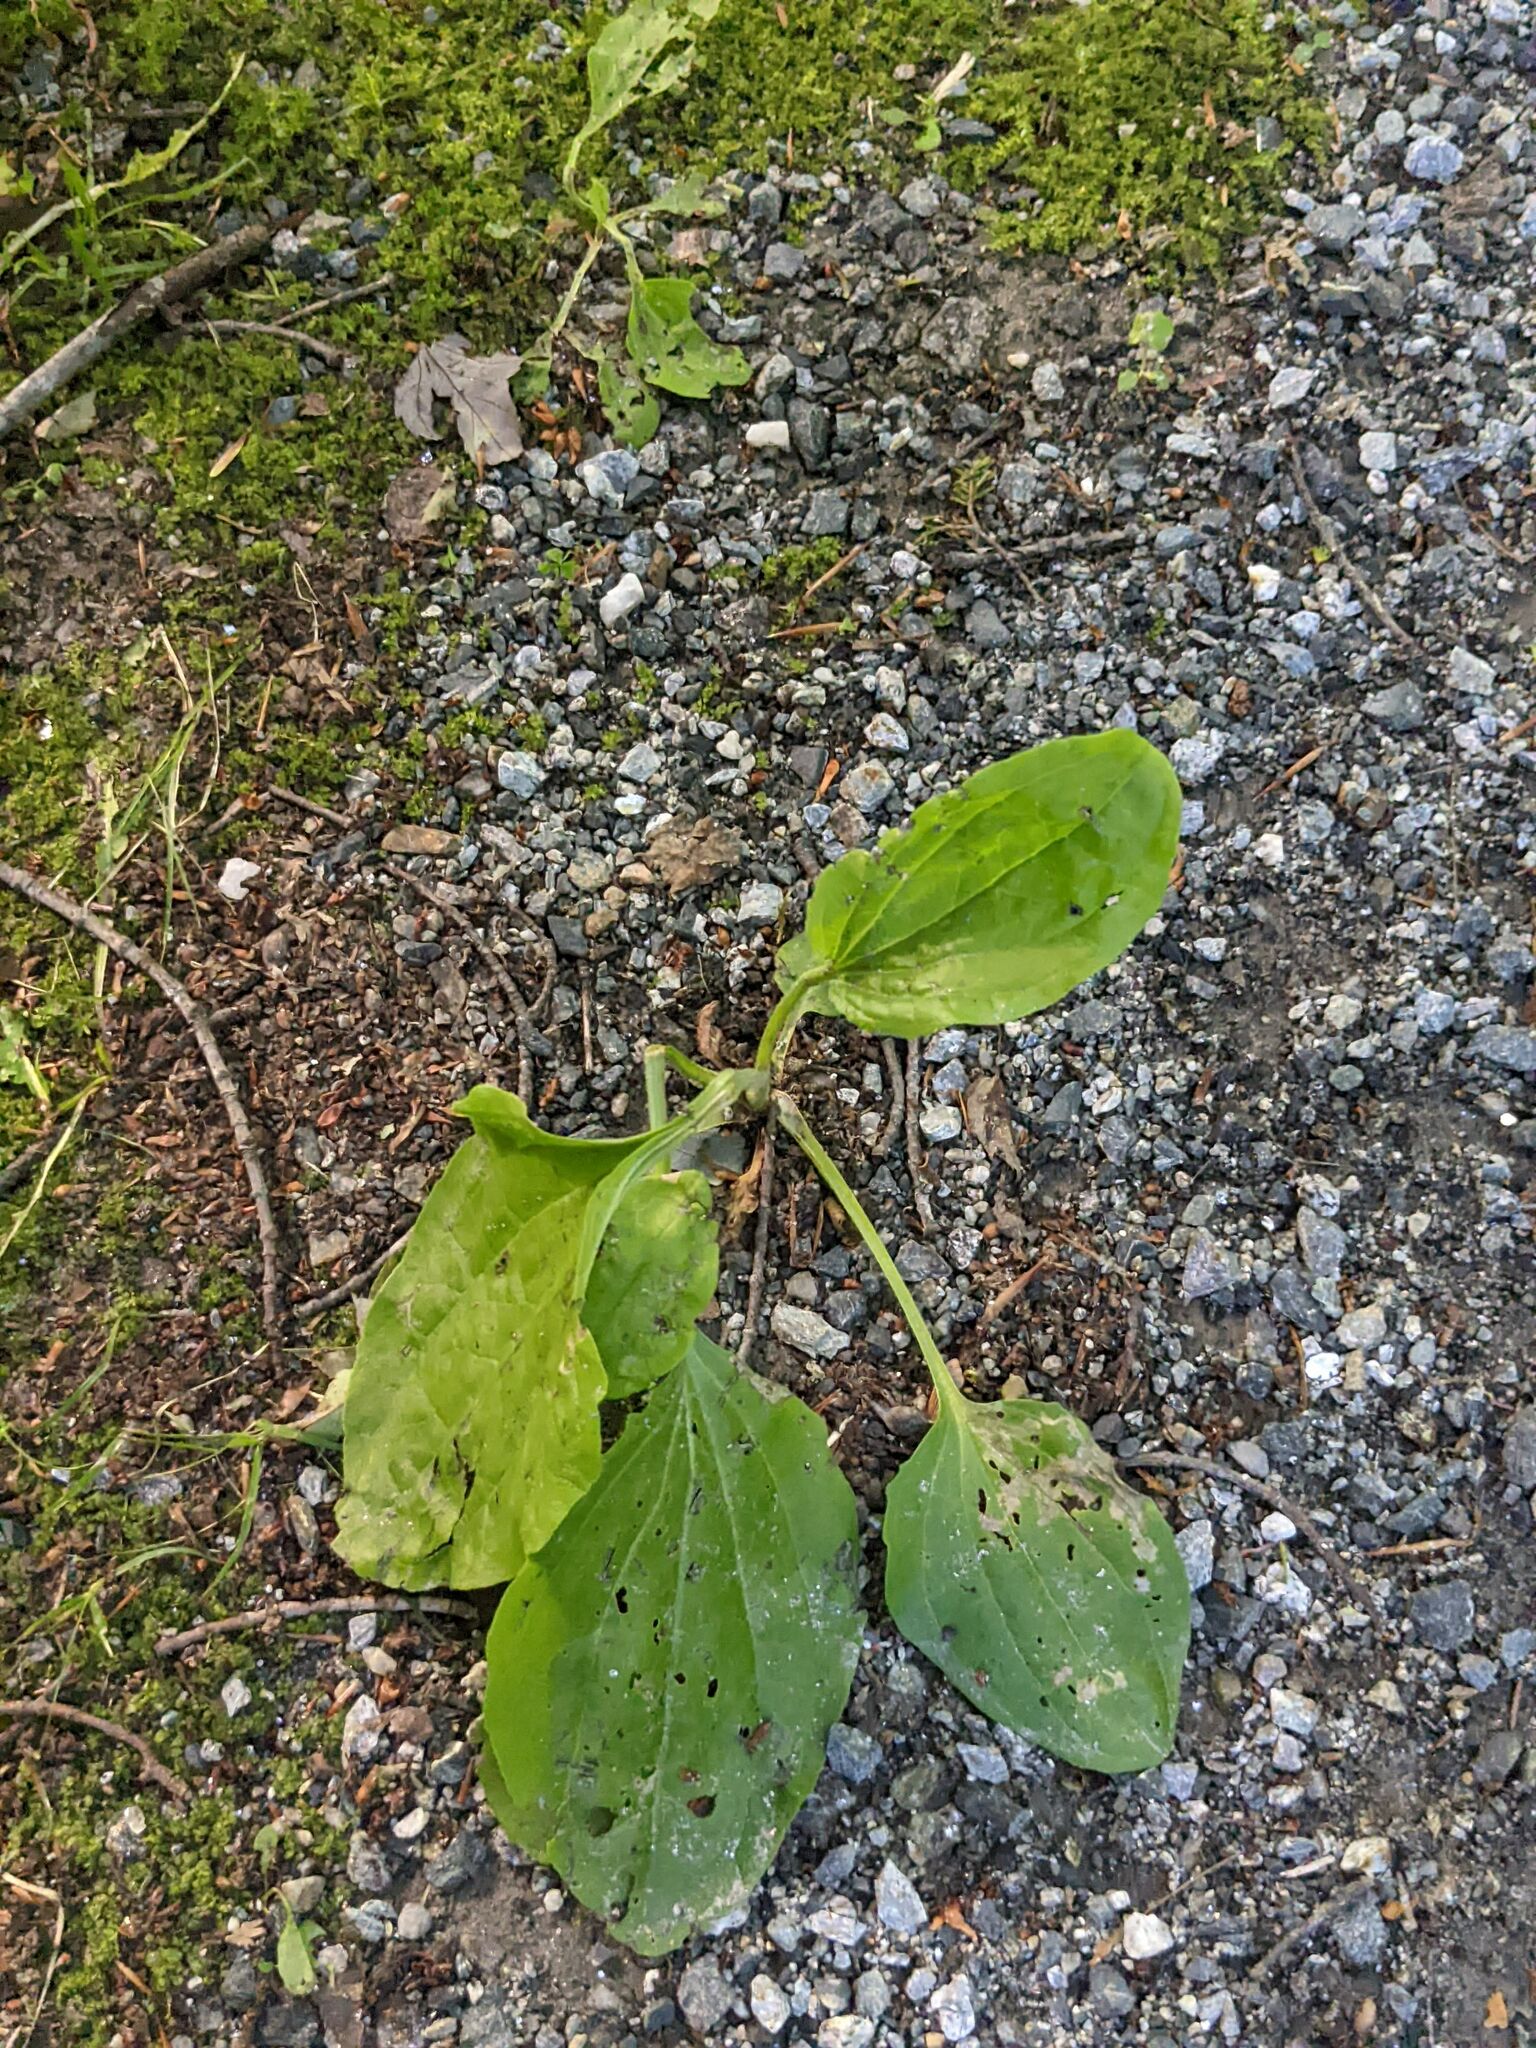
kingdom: Plantae
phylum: Tracheophyta
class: Magnoliopsida
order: Lamiales
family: Plantaginaceae
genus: Plantago
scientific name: Plantago rugelii
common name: American plantain
